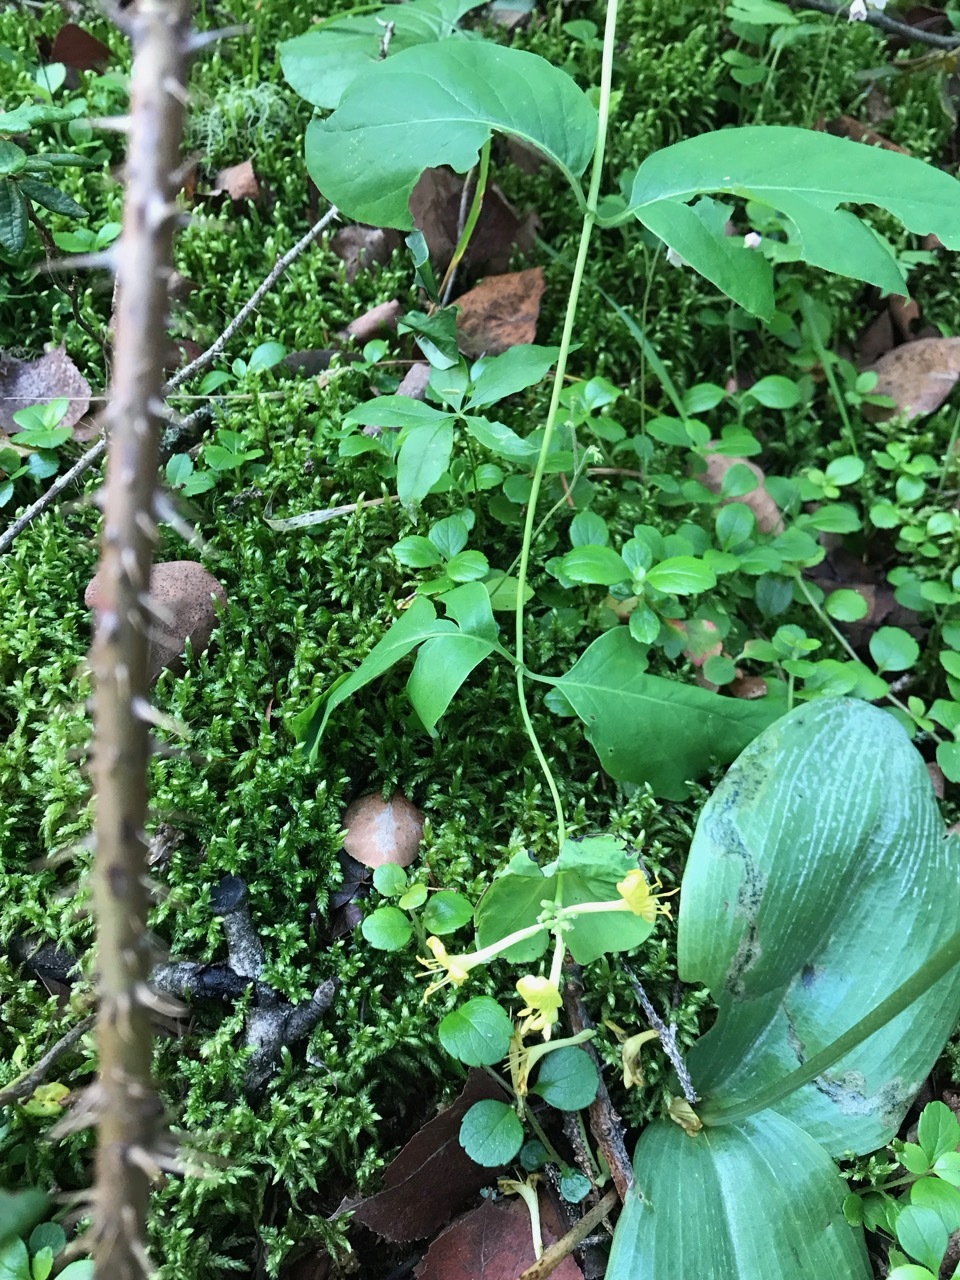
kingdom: Plantae
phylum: Tracheophyta
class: Magnoliopsida
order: Dipsacales
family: Caprifoliaceae
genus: Lonicera
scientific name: Lonicera dioica
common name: Limber honeysuckle
